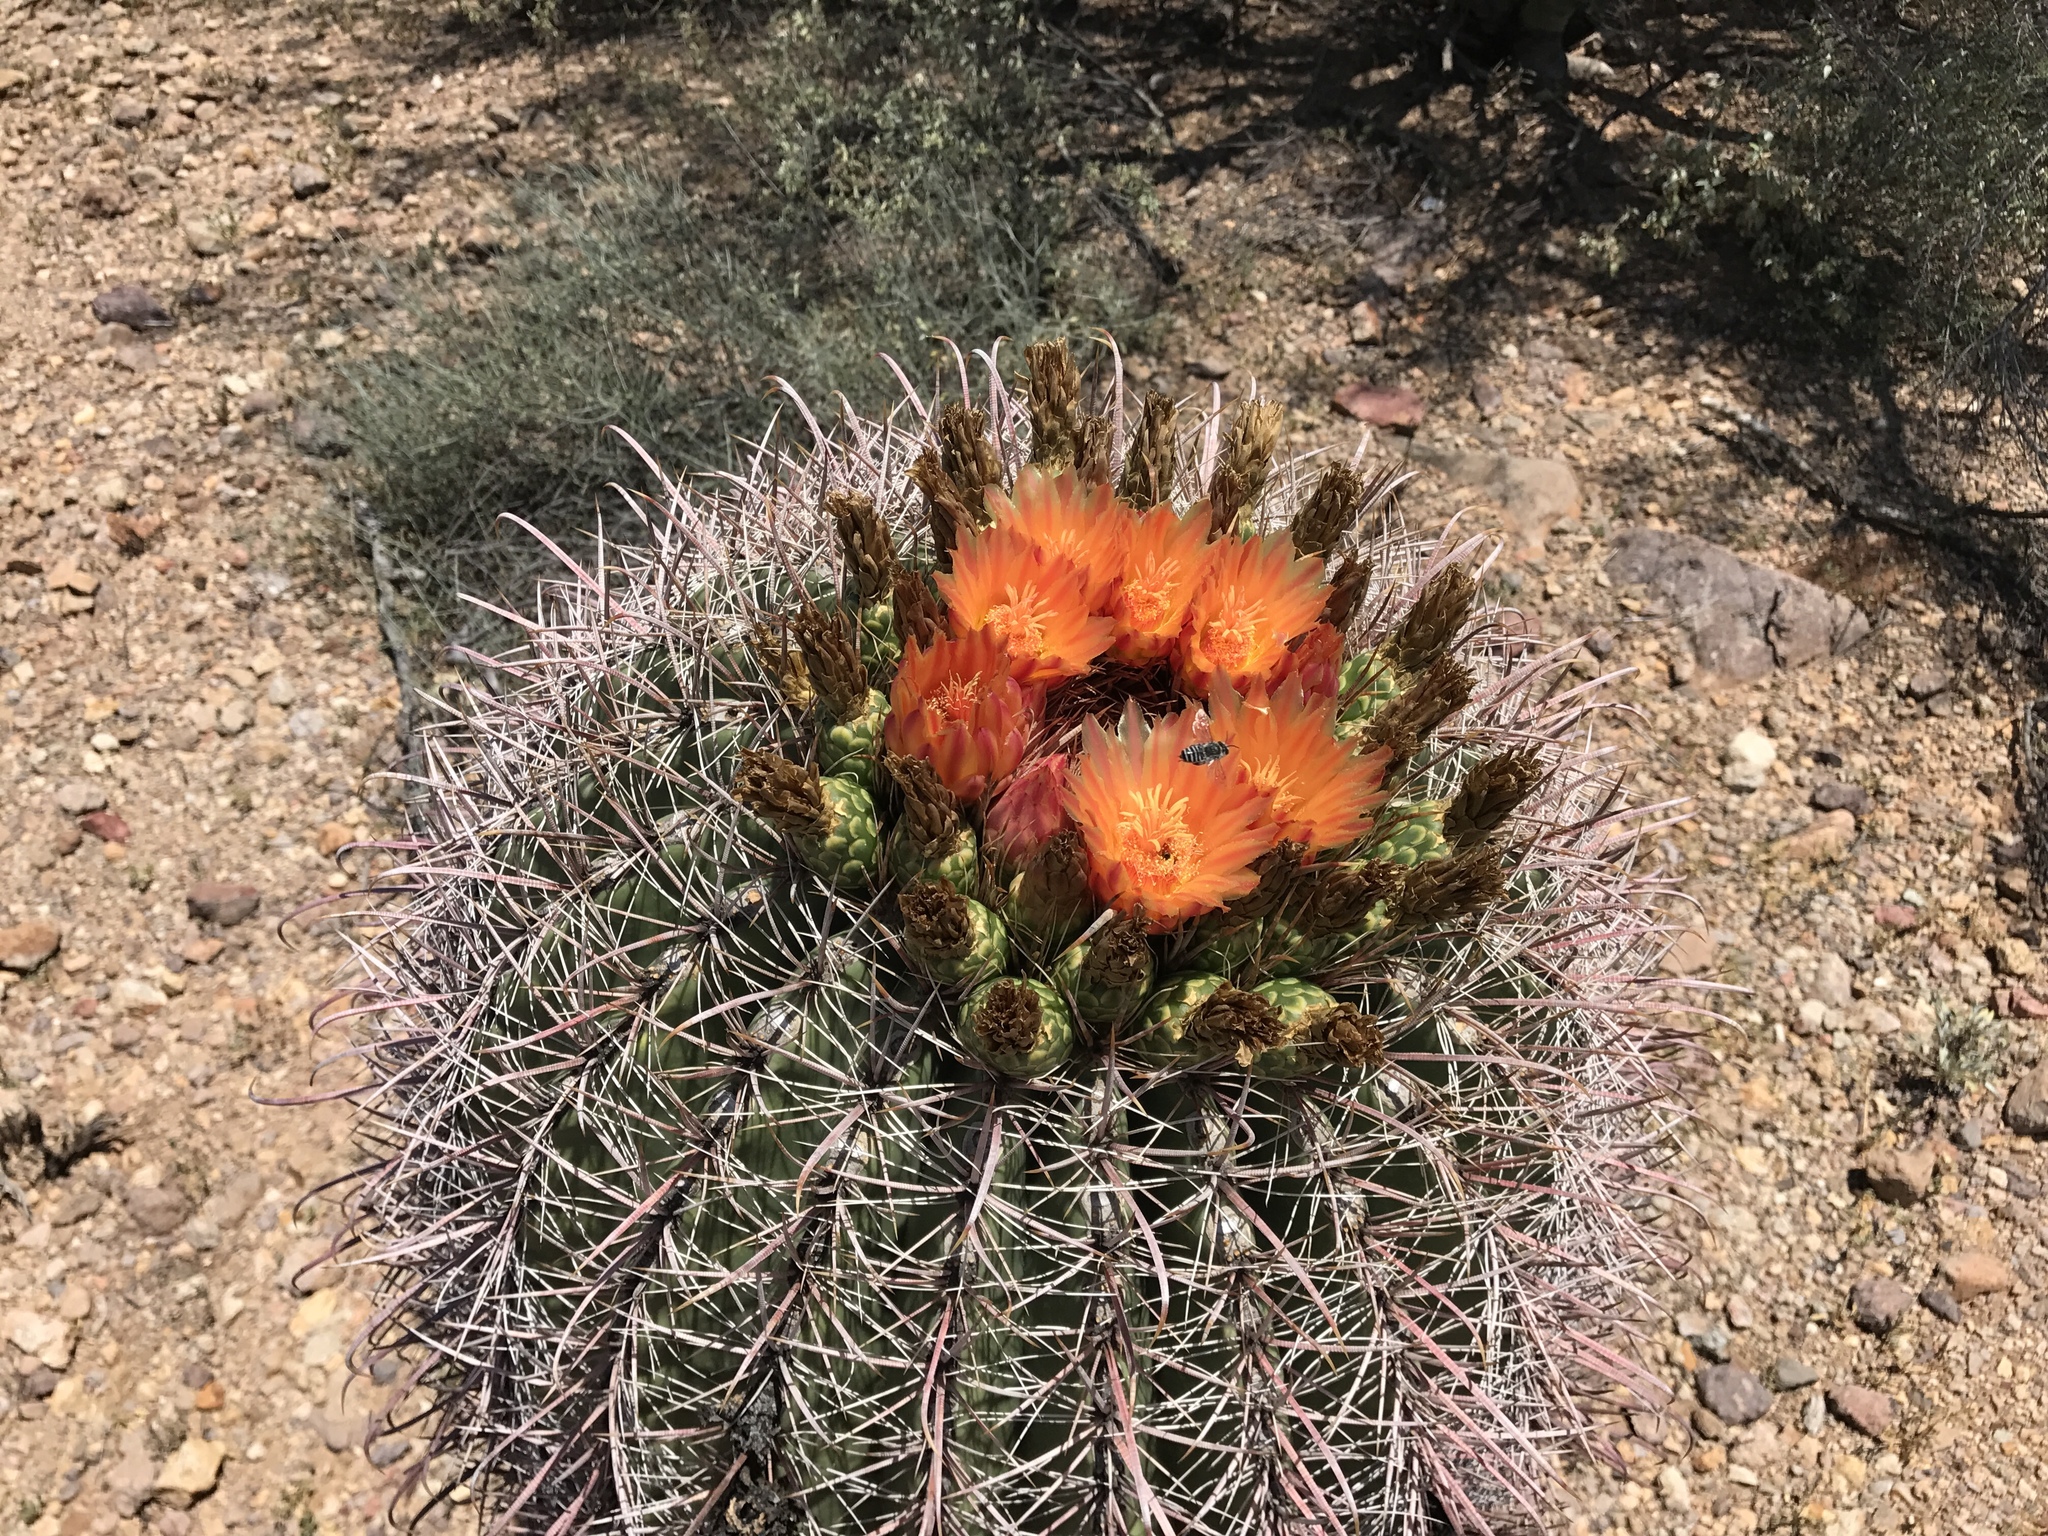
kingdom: Plantae
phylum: Tracheophyta
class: Magnoliopsida
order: Caryophyllales
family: Cactaceae
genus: Ferocactus
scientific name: Ferocactus wislizeni
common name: Candy barrel cactus
